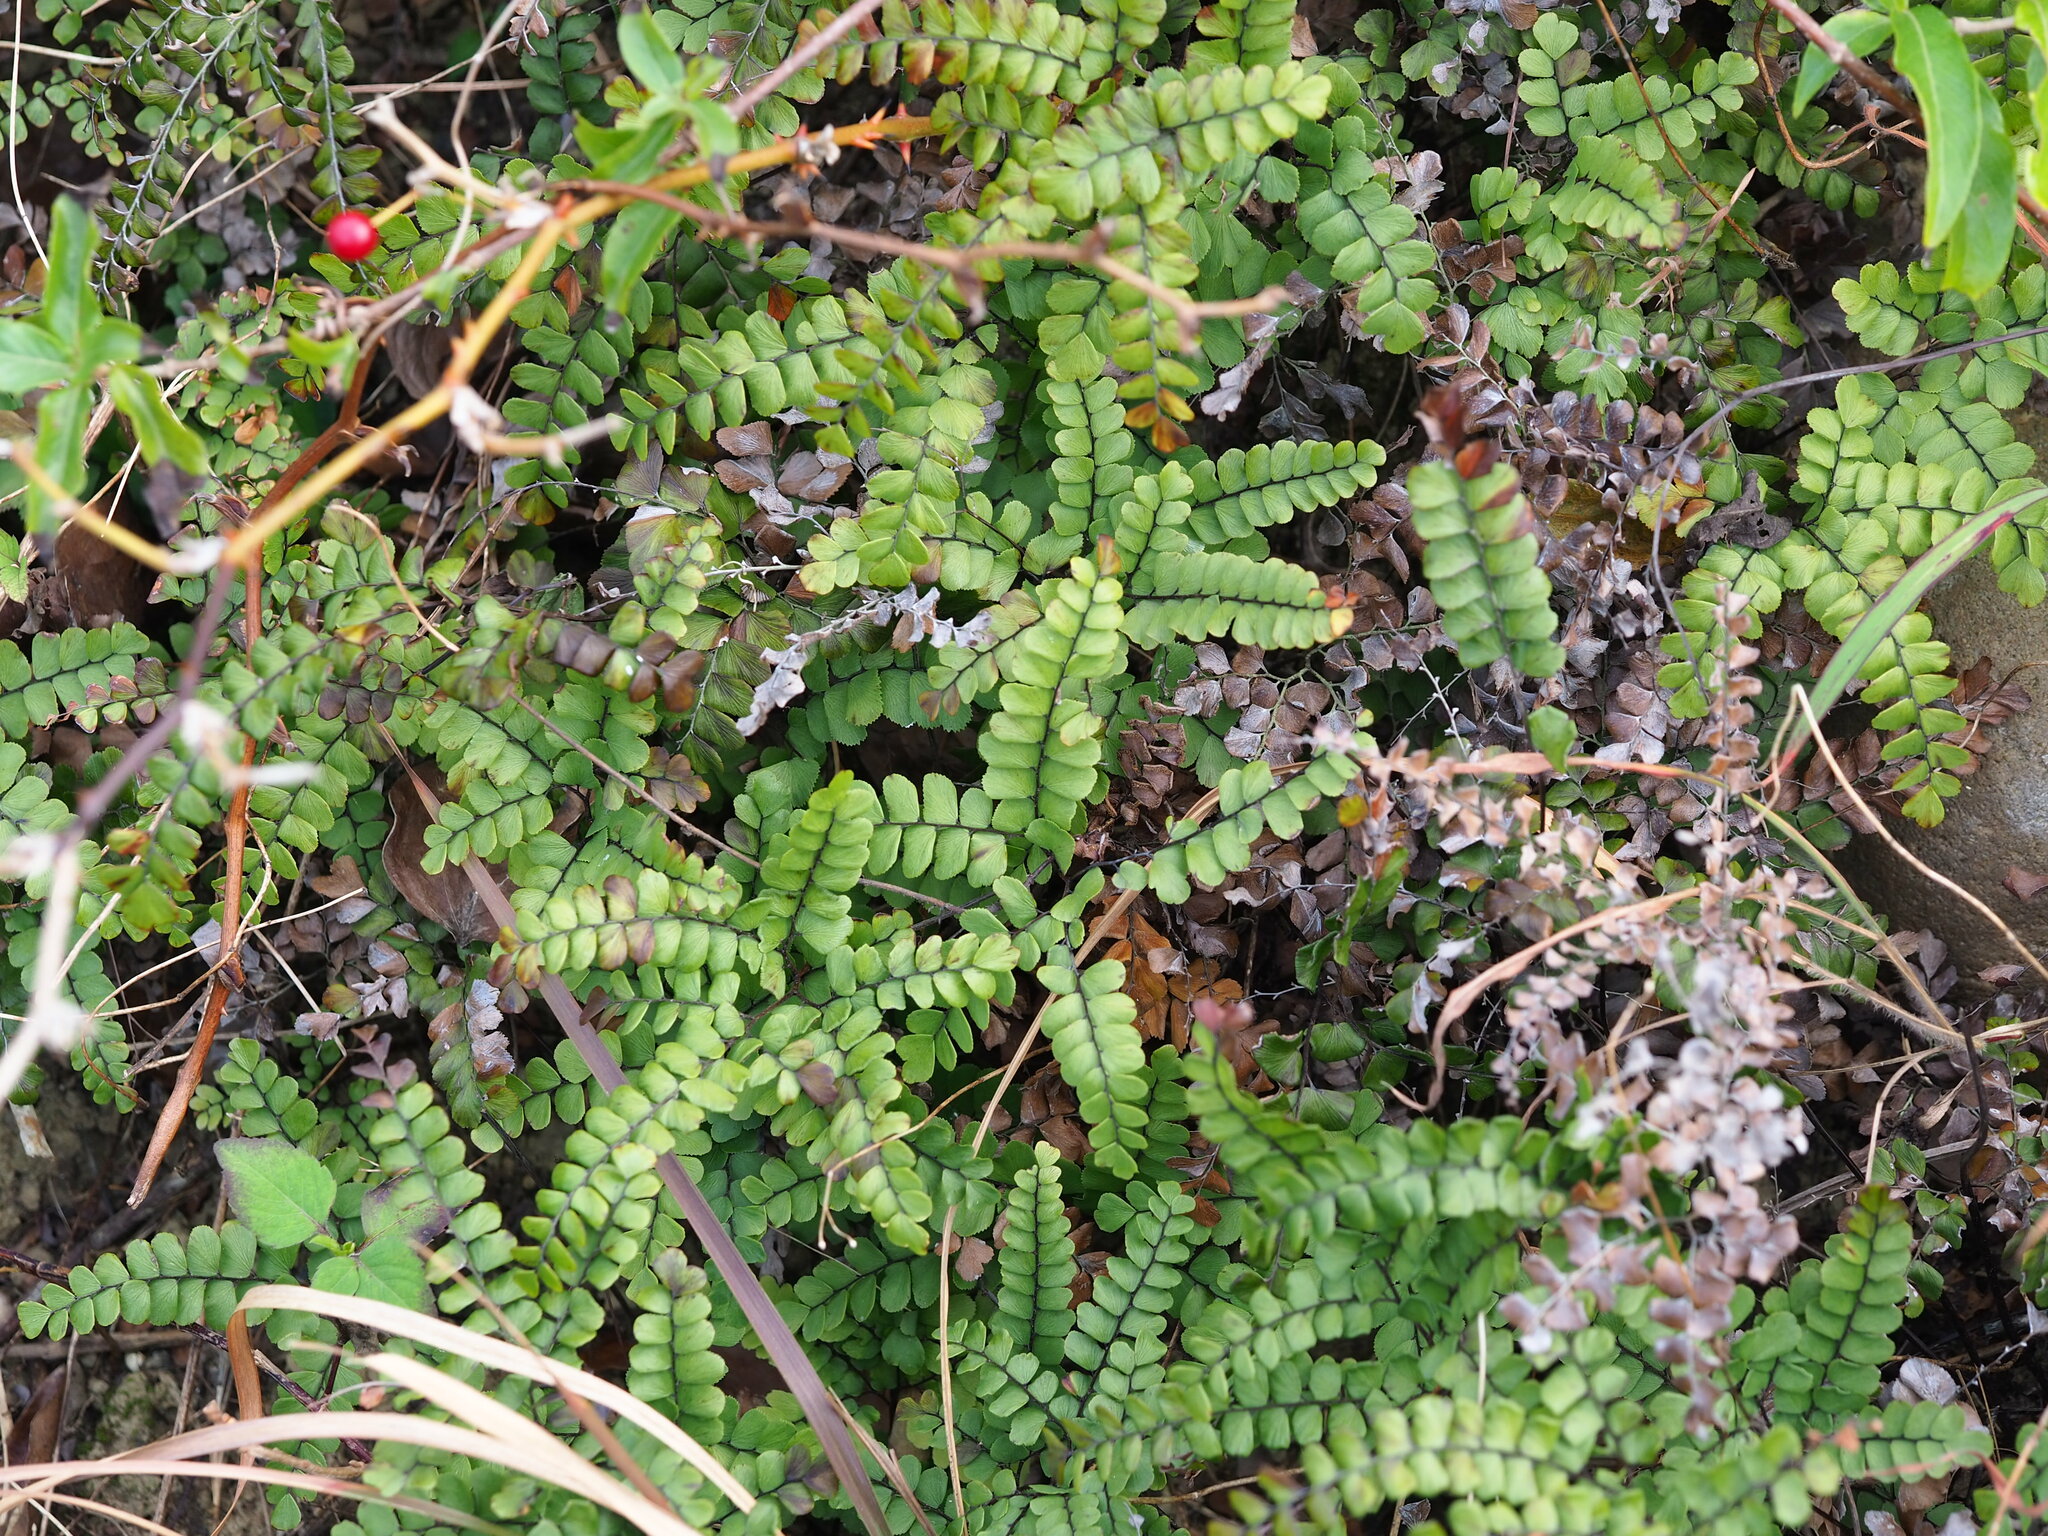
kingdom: Plantae
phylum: Tracheophyta
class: Polypodiopsida
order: Polypodiales
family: Pteridaceae
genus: Adiantum
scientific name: Adiantum flabellulatum
